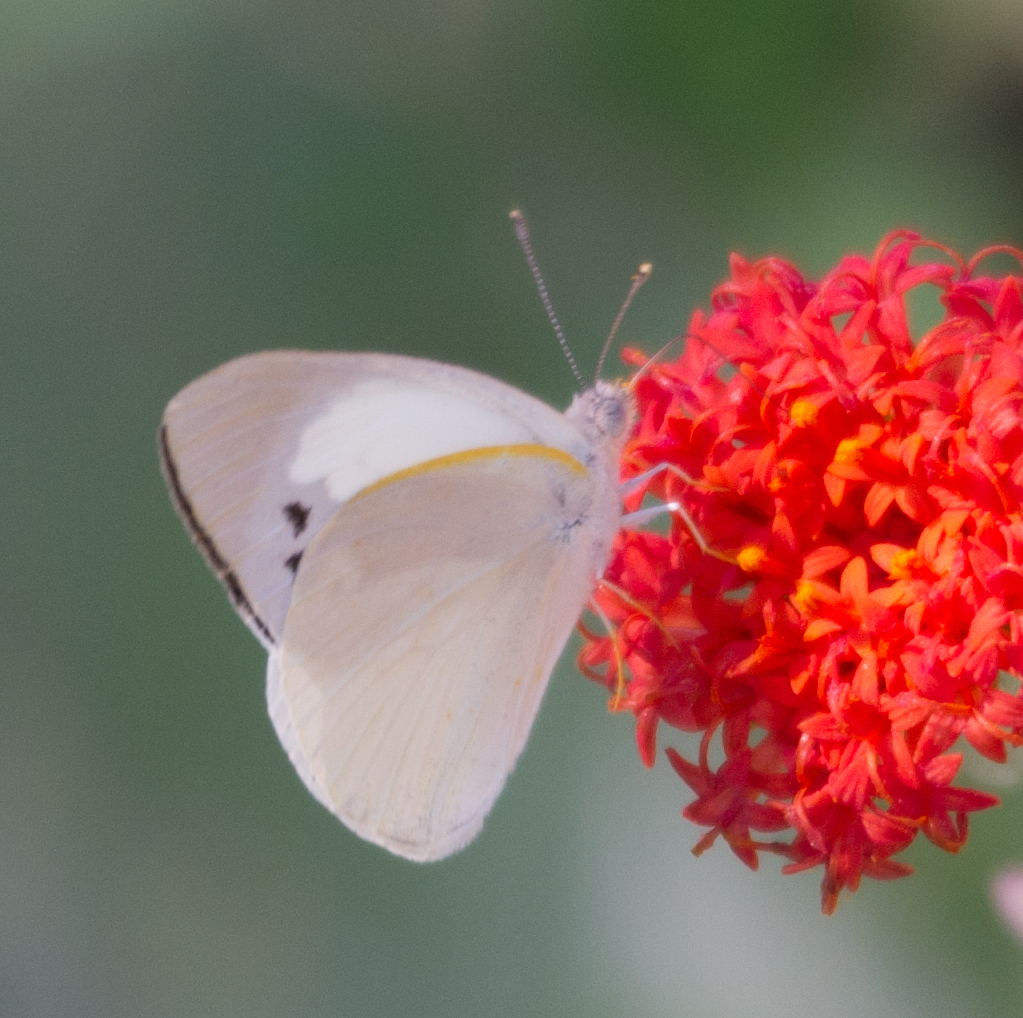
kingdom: Animalia
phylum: Arthropoda
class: Insecta
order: Lepidoptera
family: Pieridae
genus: Colotis
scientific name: Colotis eris
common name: Banded gold tip
